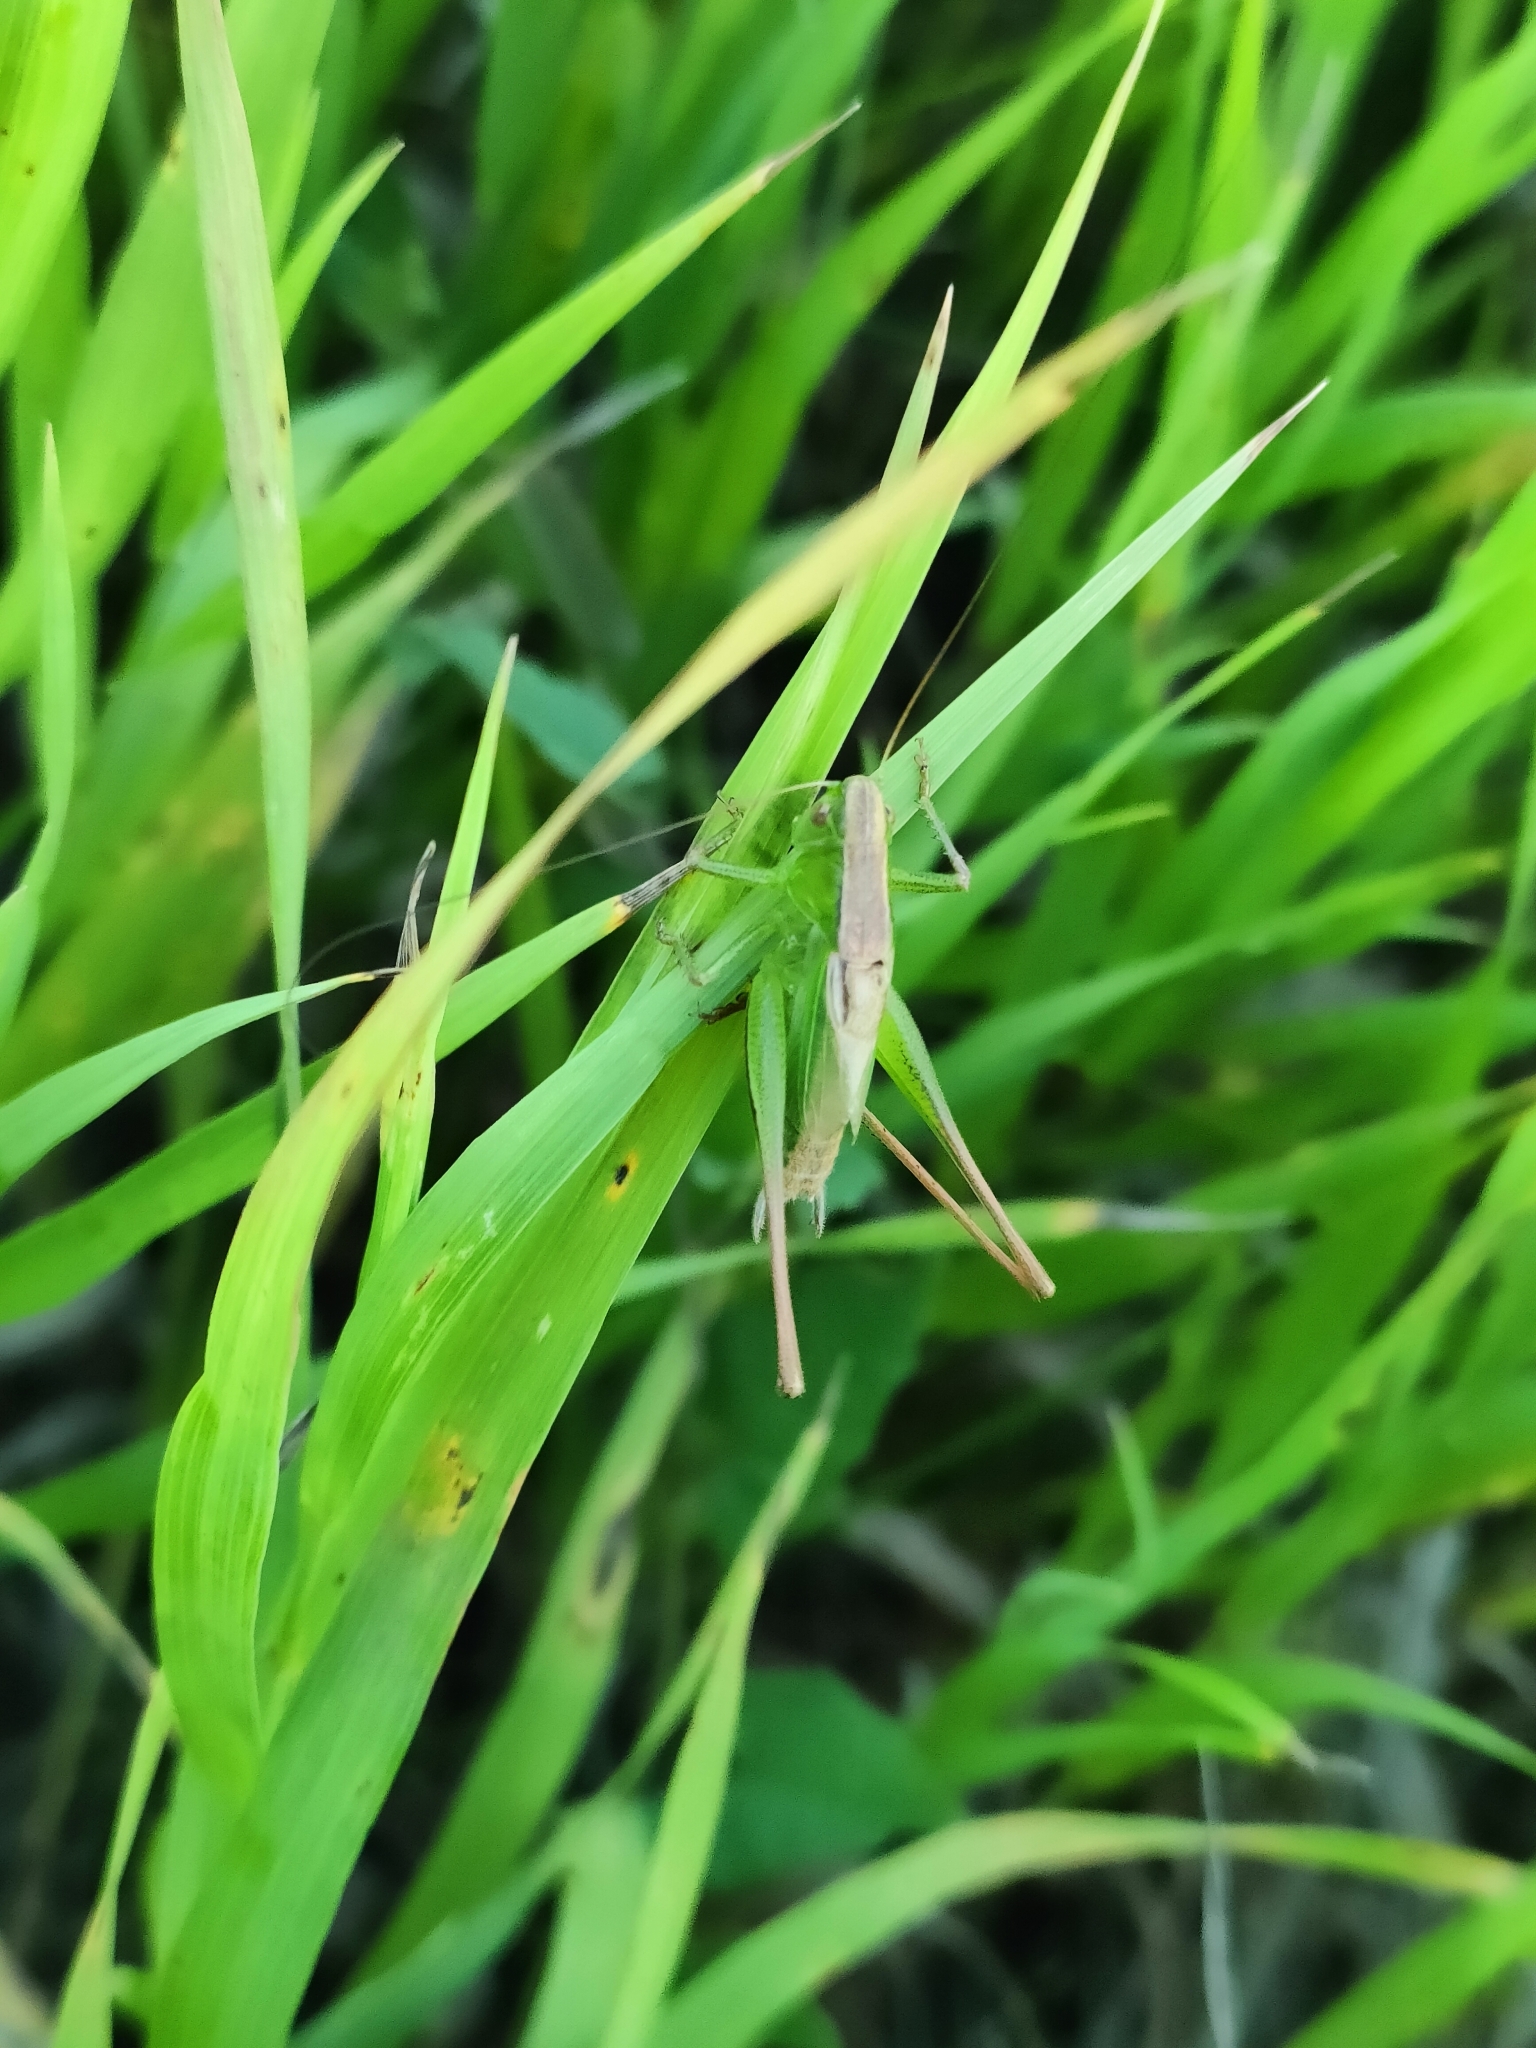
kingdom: Animalia
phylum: Arthropoda
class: Insecta
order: Orthoptera
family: Tettigoniidae
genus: Bicolorana
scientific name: Bicolorana bicolor
